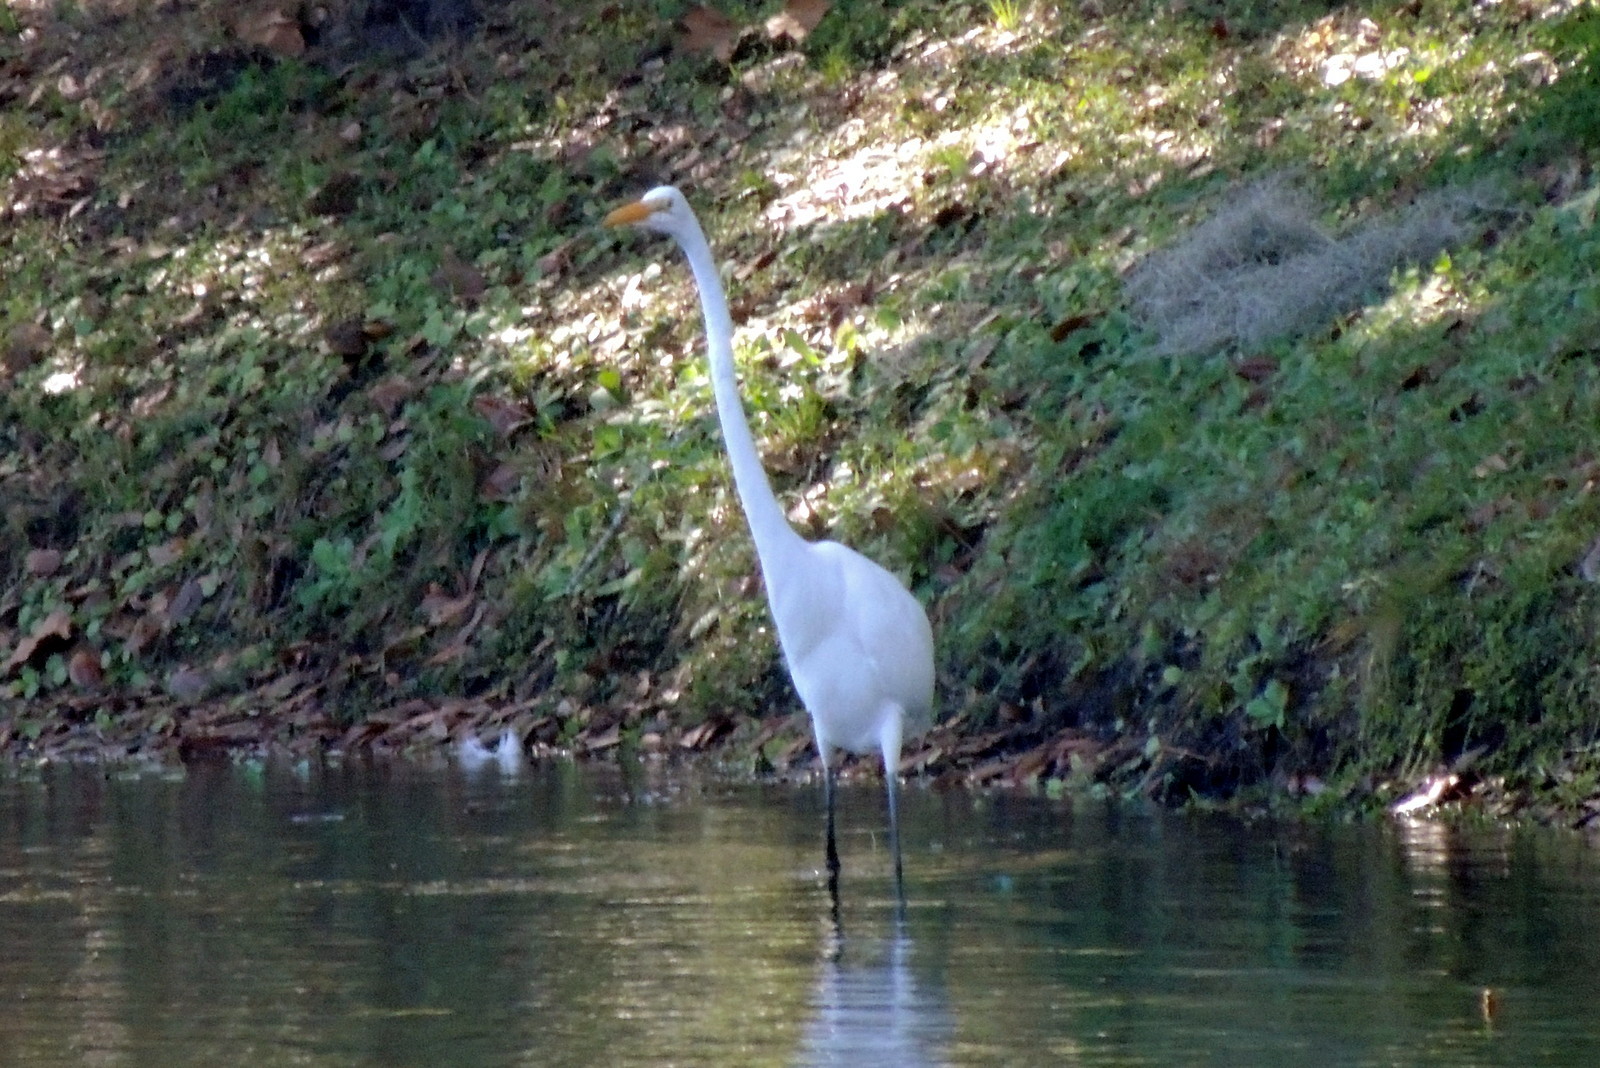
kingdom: Animalia
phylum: Chordata
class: Aves
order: Pelecaniformes
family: Ardeidae
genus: Ardea
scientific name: Ardea alba
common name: Great egret
